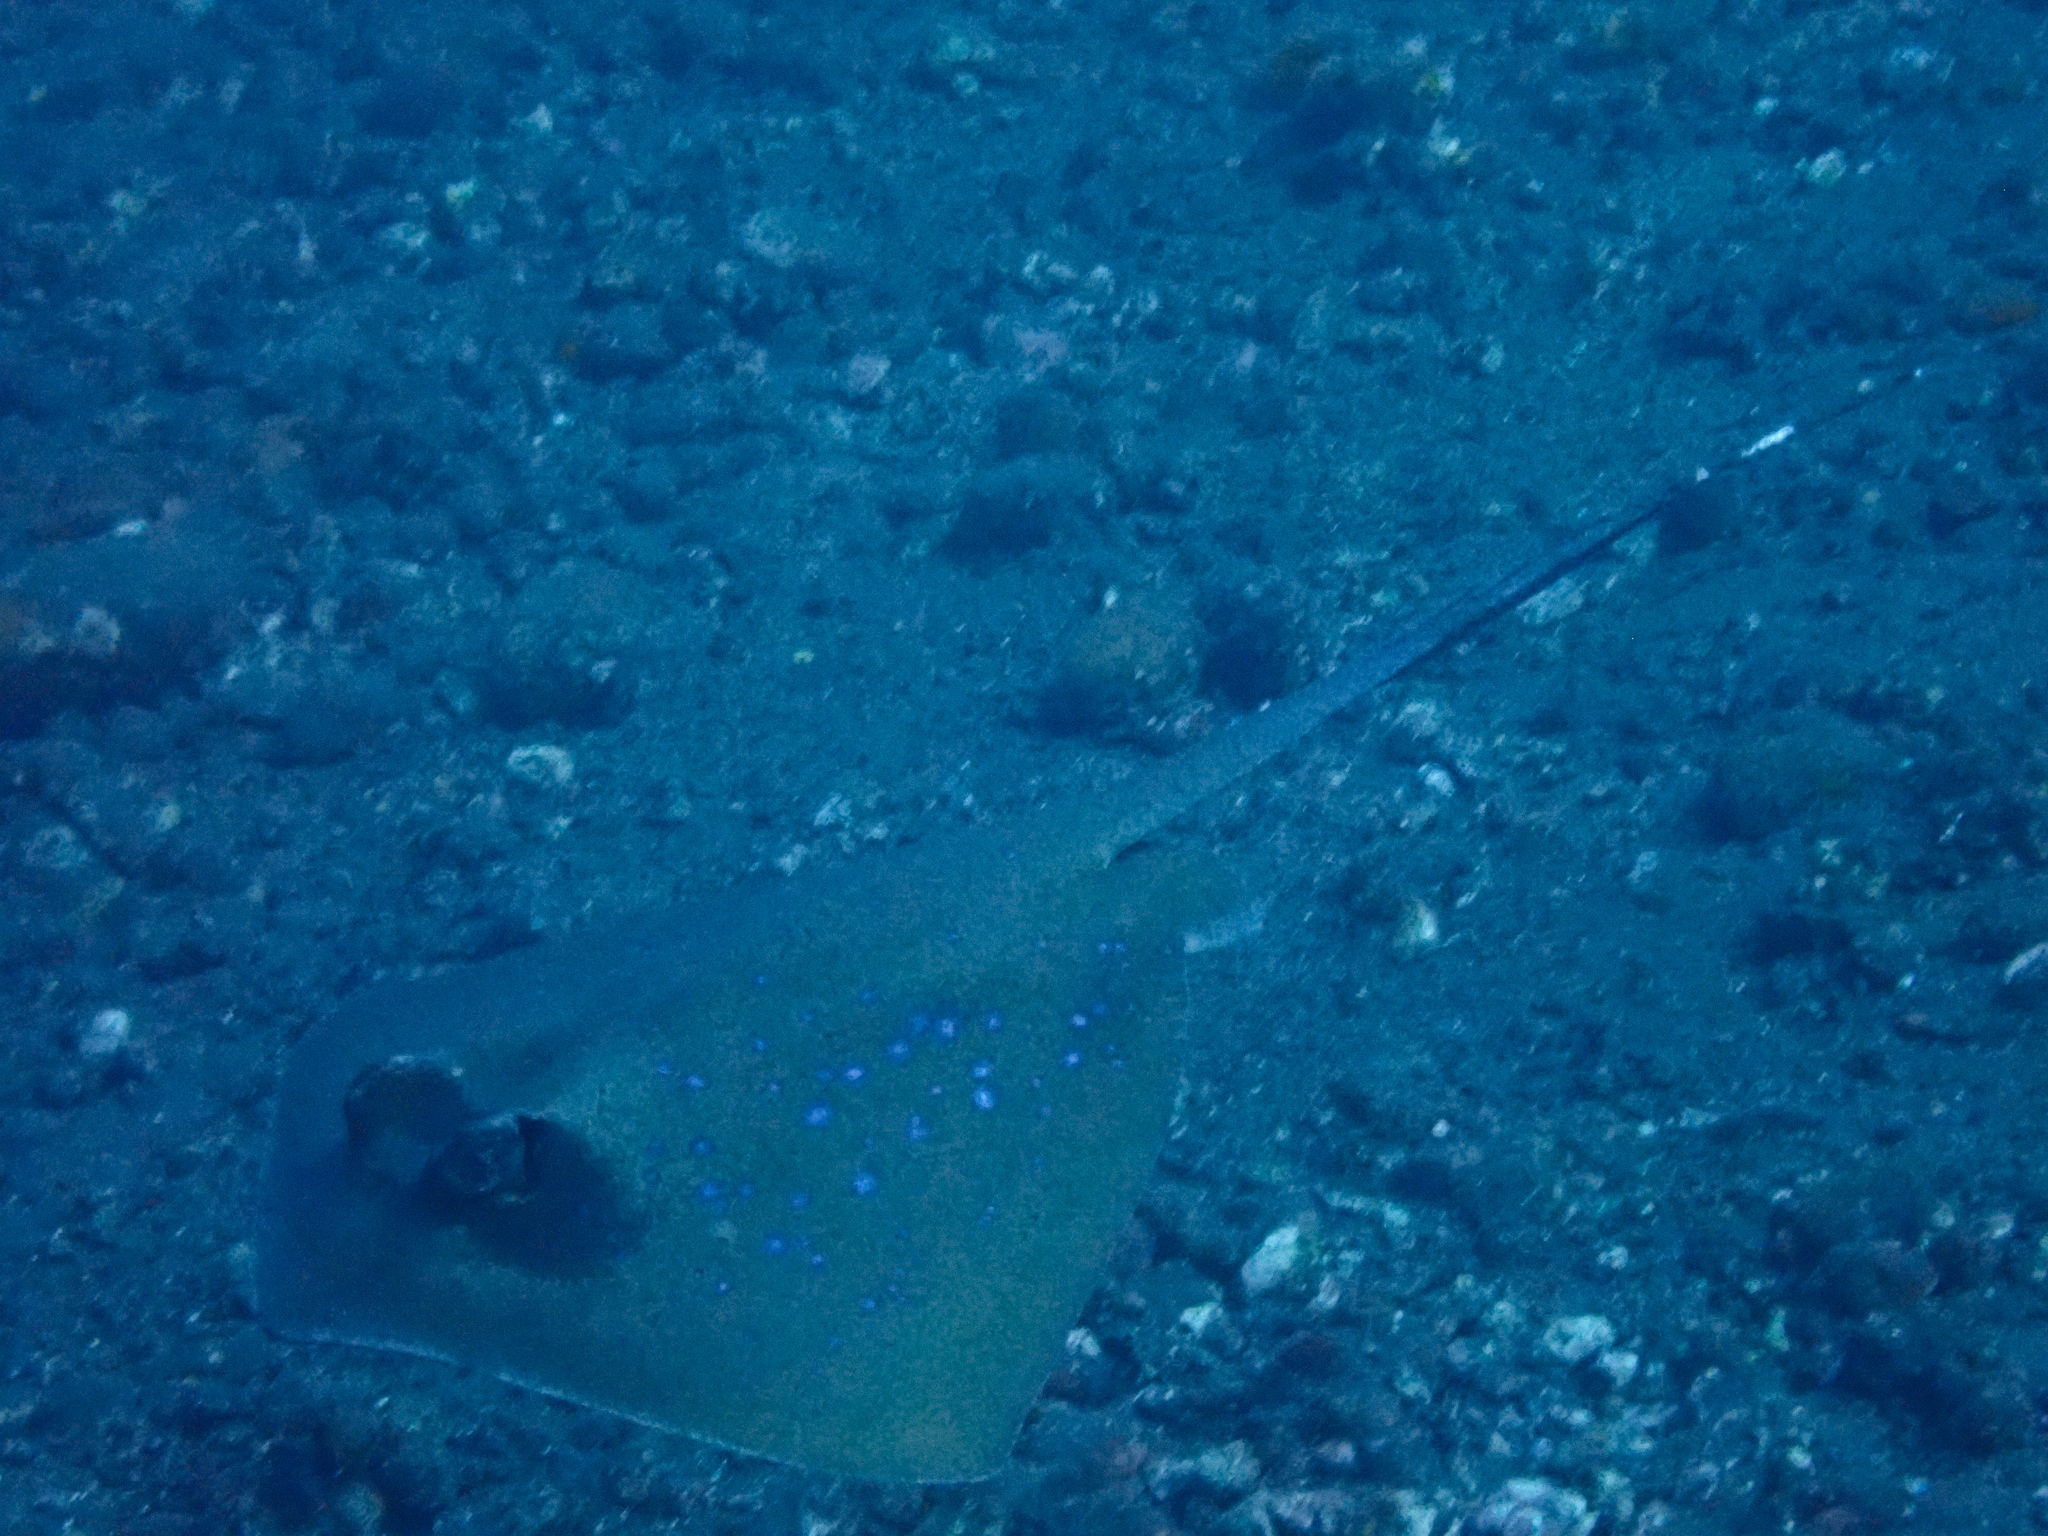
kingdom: Animalia
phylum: Chordata
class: Elasmobranchii
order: Myliobatiformes
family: Dasyatidae
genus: Neotrygon
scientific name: Neotrygon caeruleopunctata
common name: Bluespotted maskray
